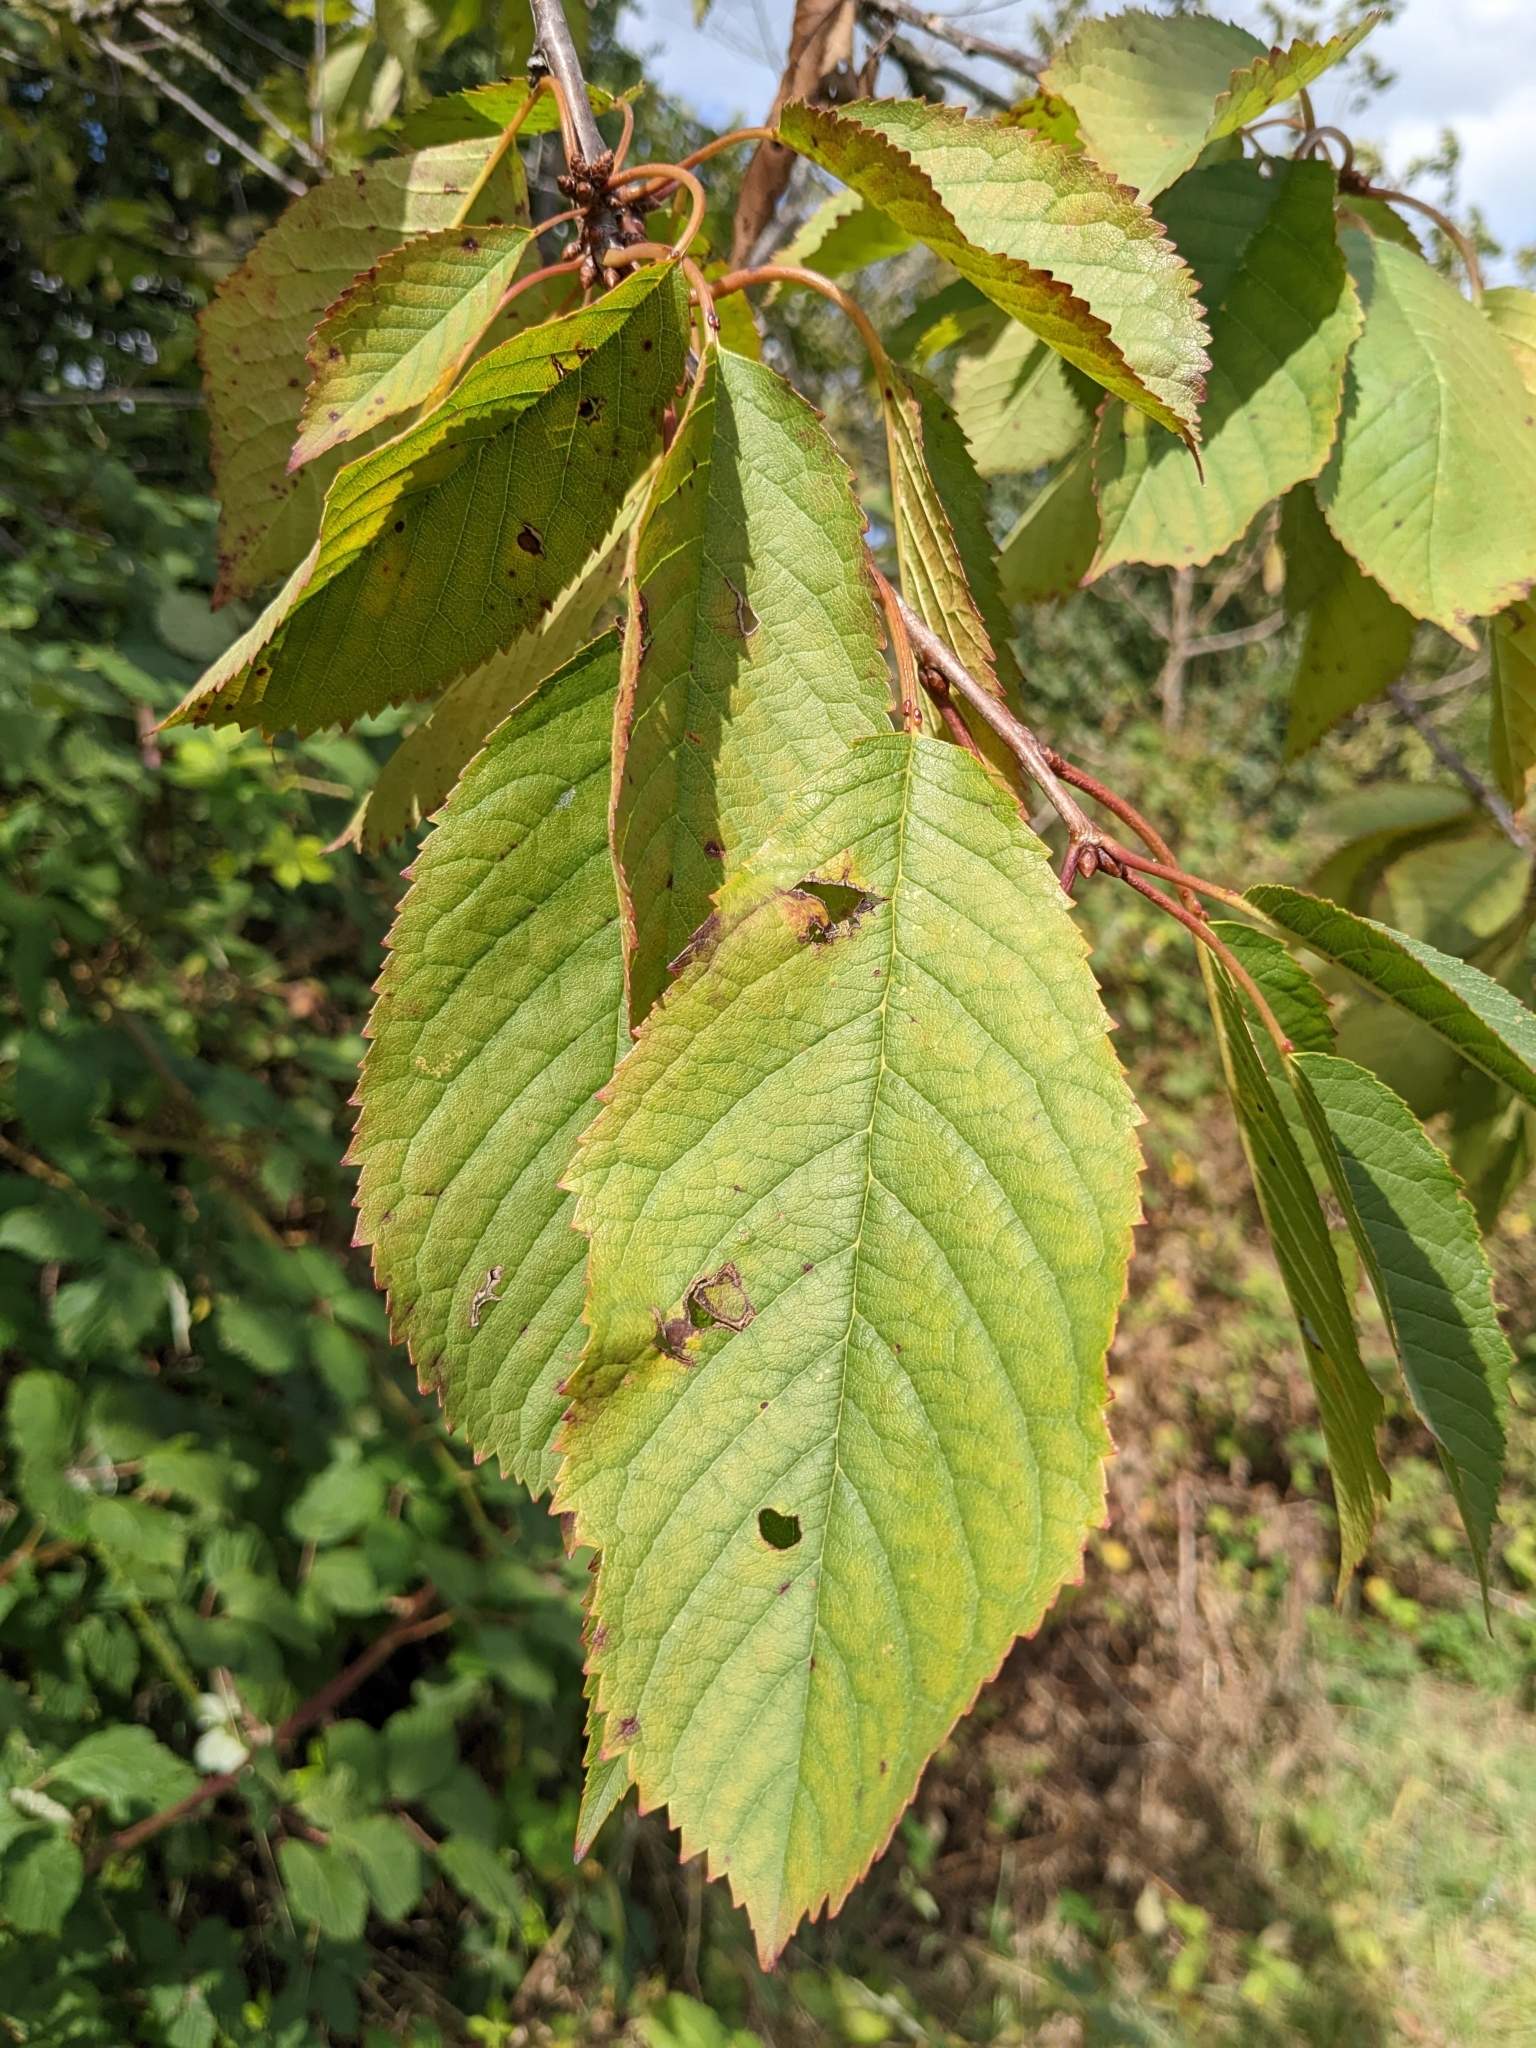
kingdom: Plantae
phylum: Tracheophyta
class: Magnoliopsida
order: Rosales
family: Rosaceae
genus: Prunus
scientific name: Prunus avium
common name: Sweet cherry
